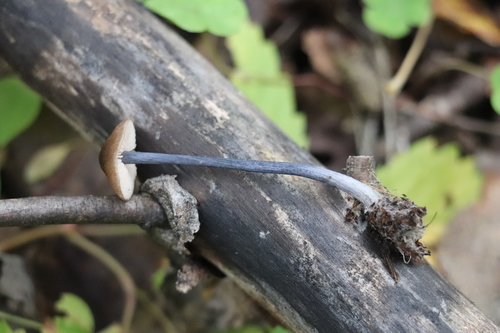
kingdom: Fungi
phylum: Basidiomycota
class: Agaricomycetes
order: Agaricales
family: Entolomataceae
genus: Entoloma
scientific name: Entoloma
